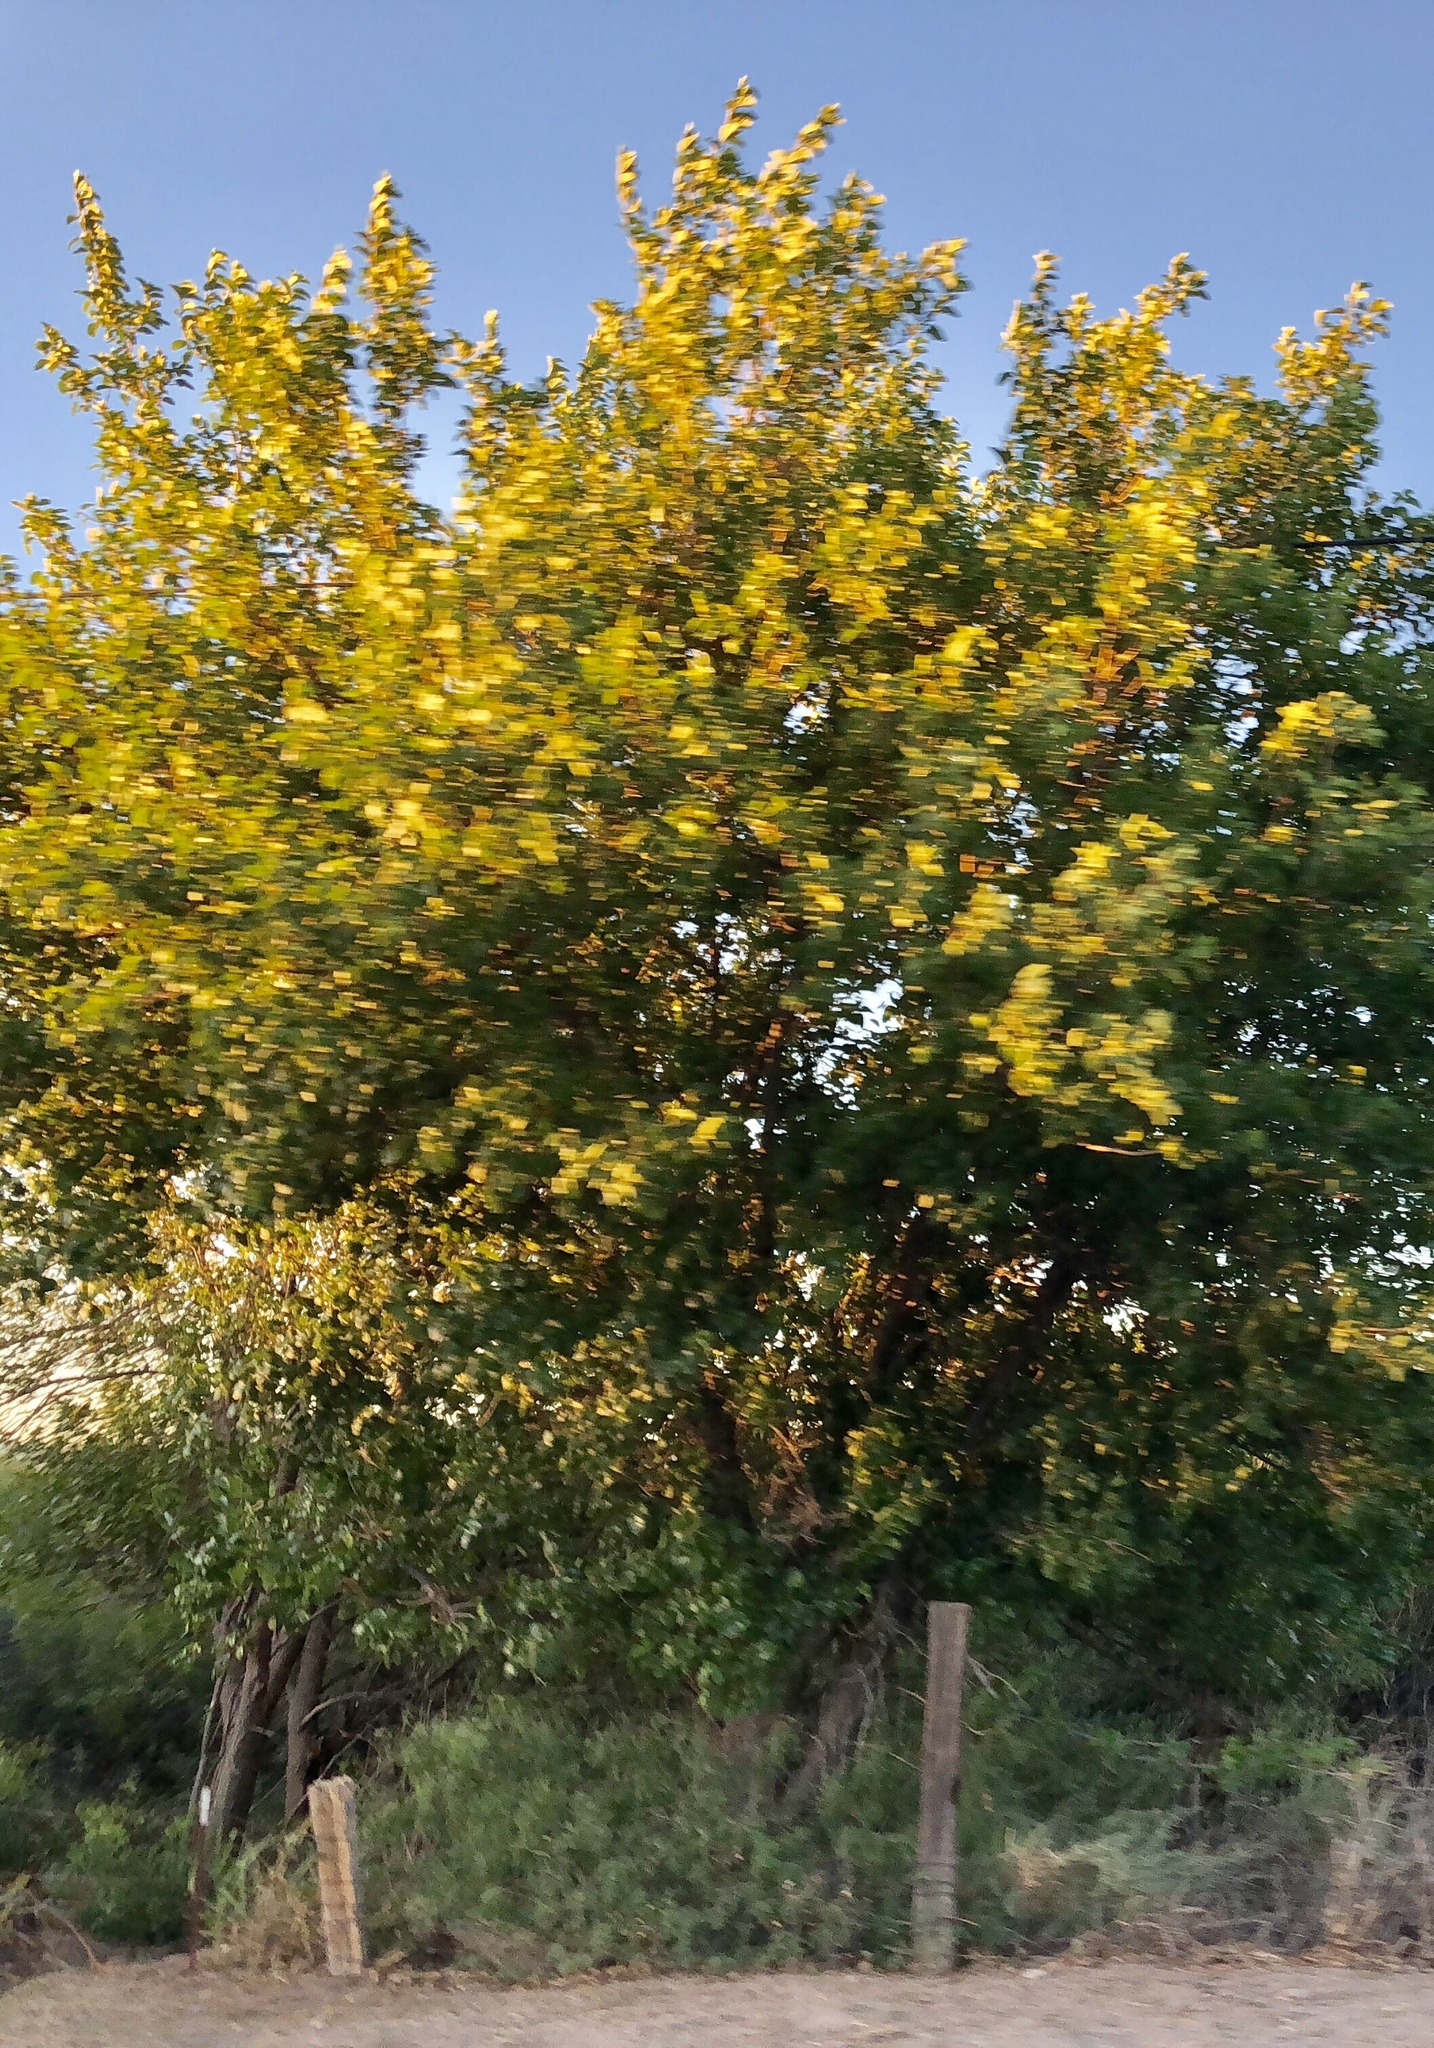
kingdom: Plantae
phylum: Tracheophyta
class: Magnoliopsida
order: Proteales
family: Platanaceae
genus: Platanus
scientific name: Platanus wrightii
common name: Arizona sycamore
